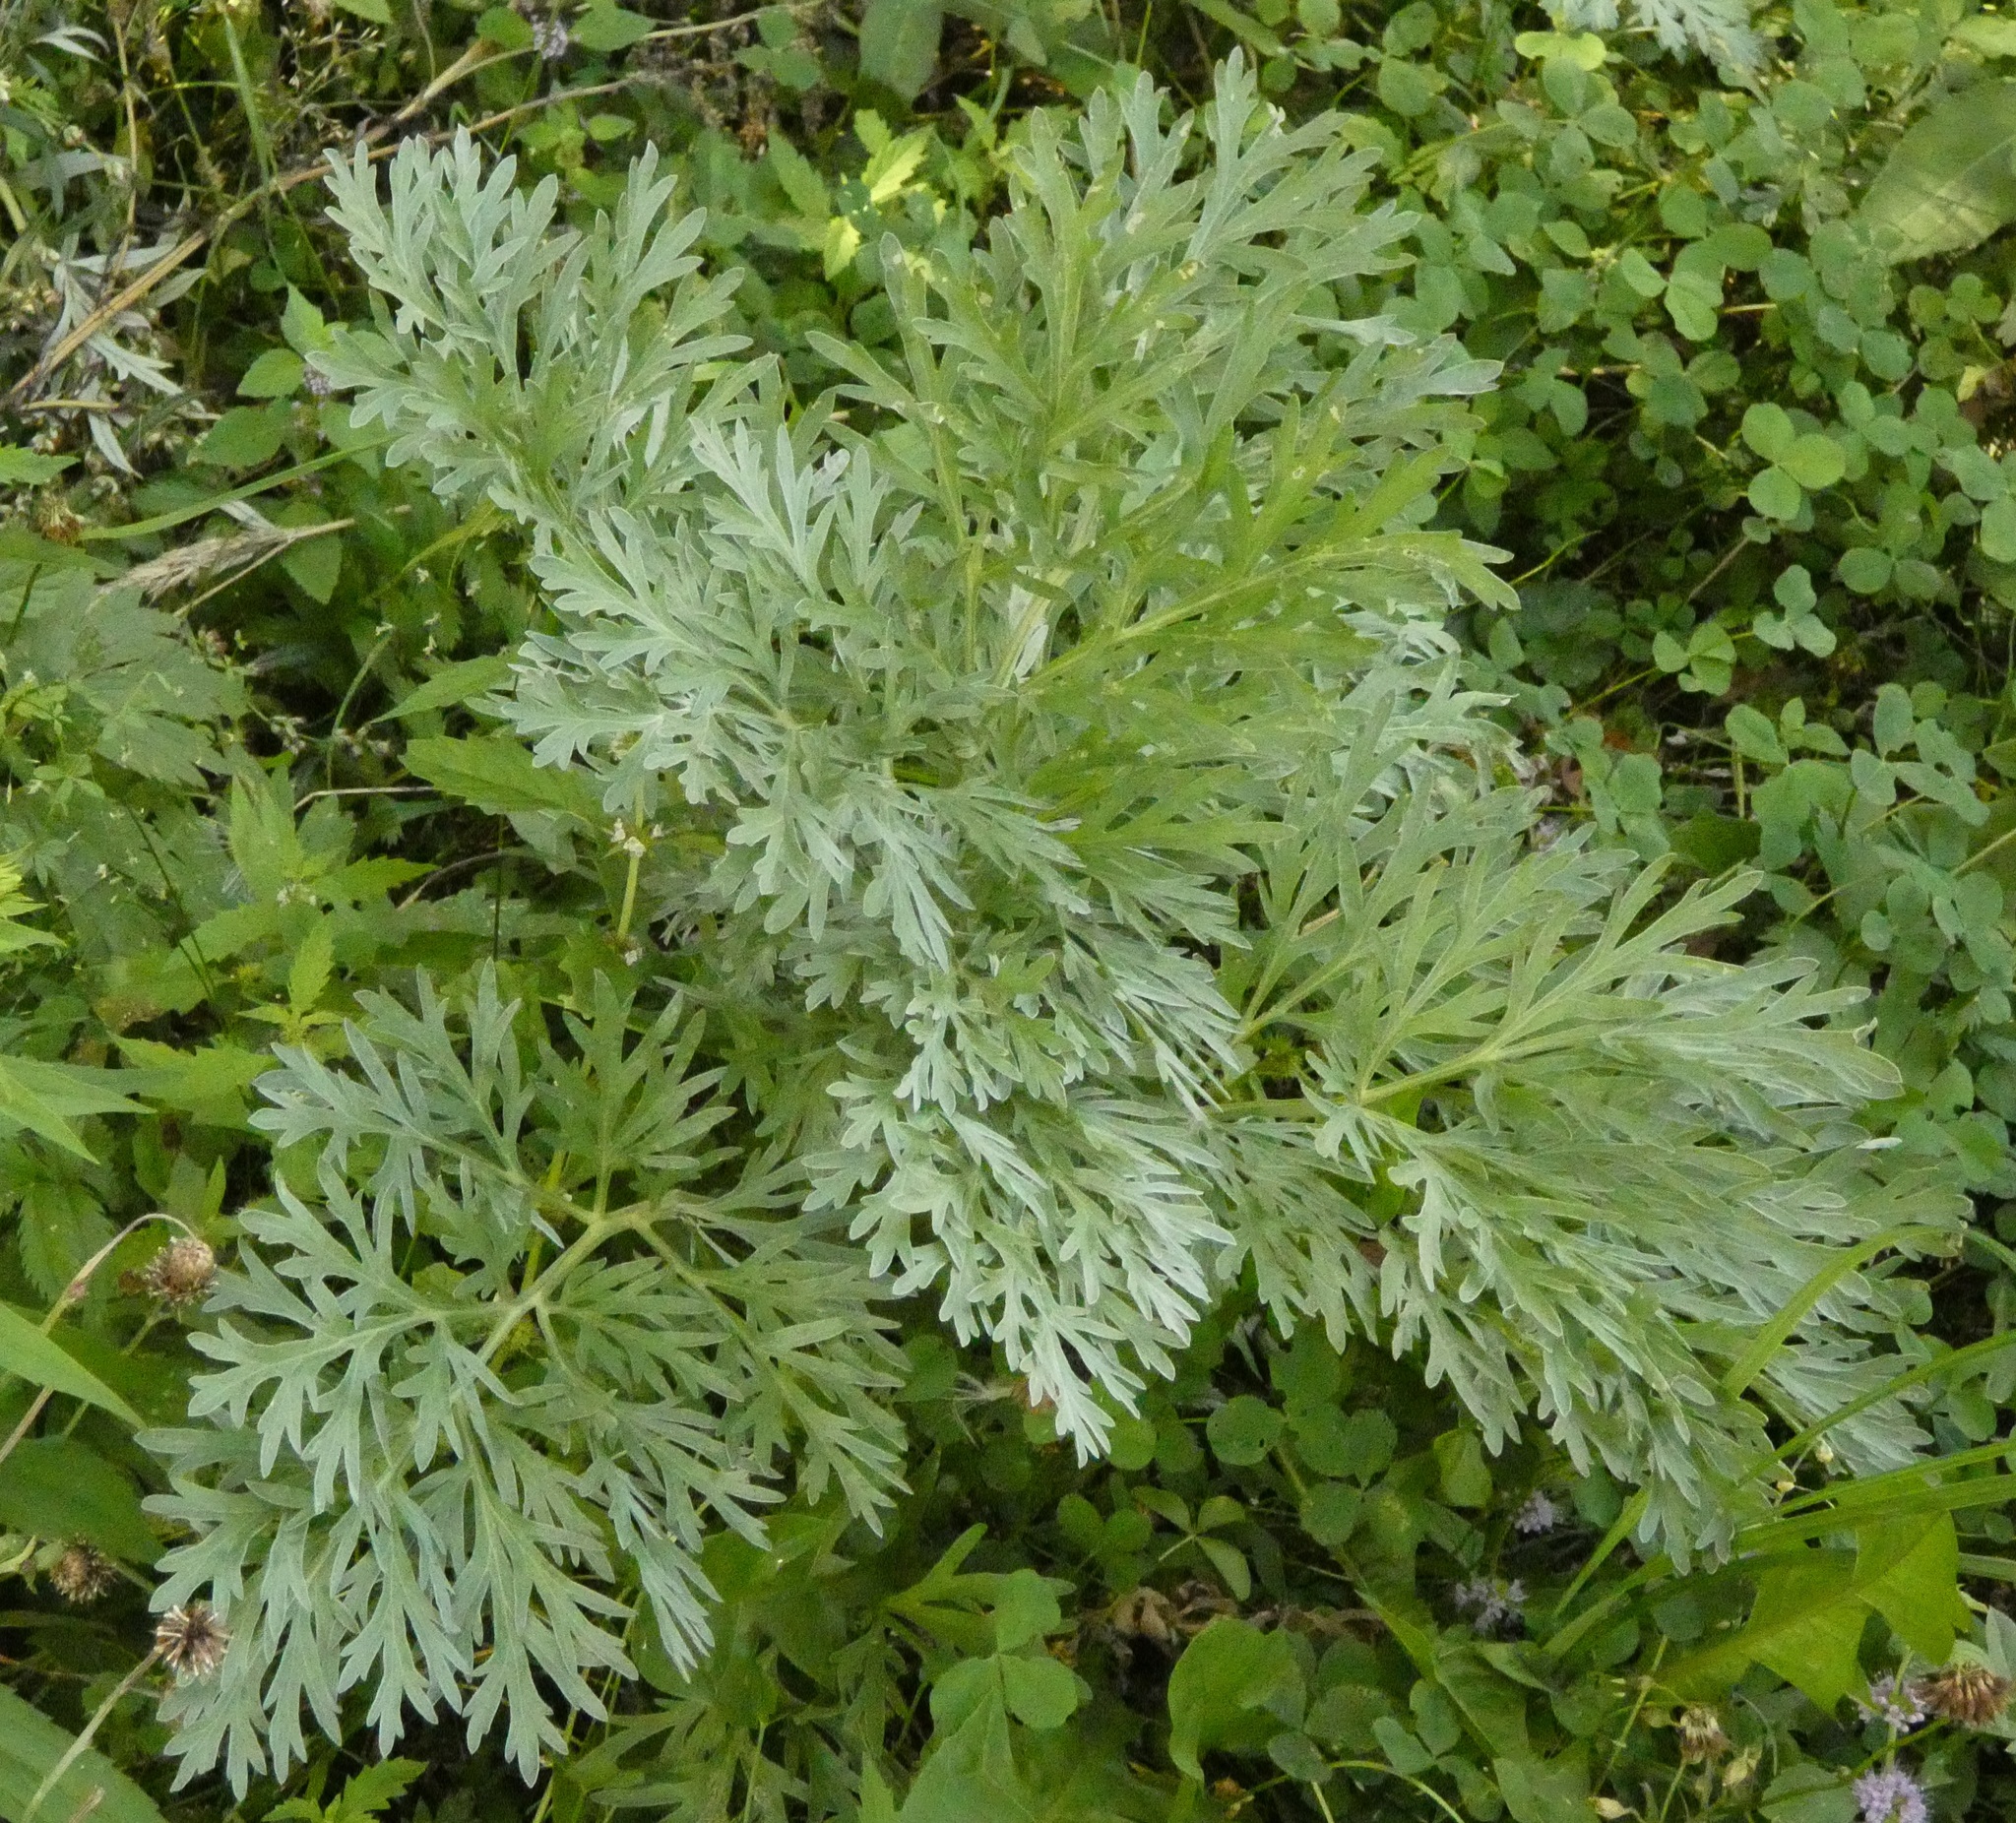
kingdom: Plantae
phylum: Tracheophyta
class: Magnoliopsida
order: Asterales
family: Asteraceae
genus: Artemisia
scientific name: Artemisia absinthium
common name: Wormwood
